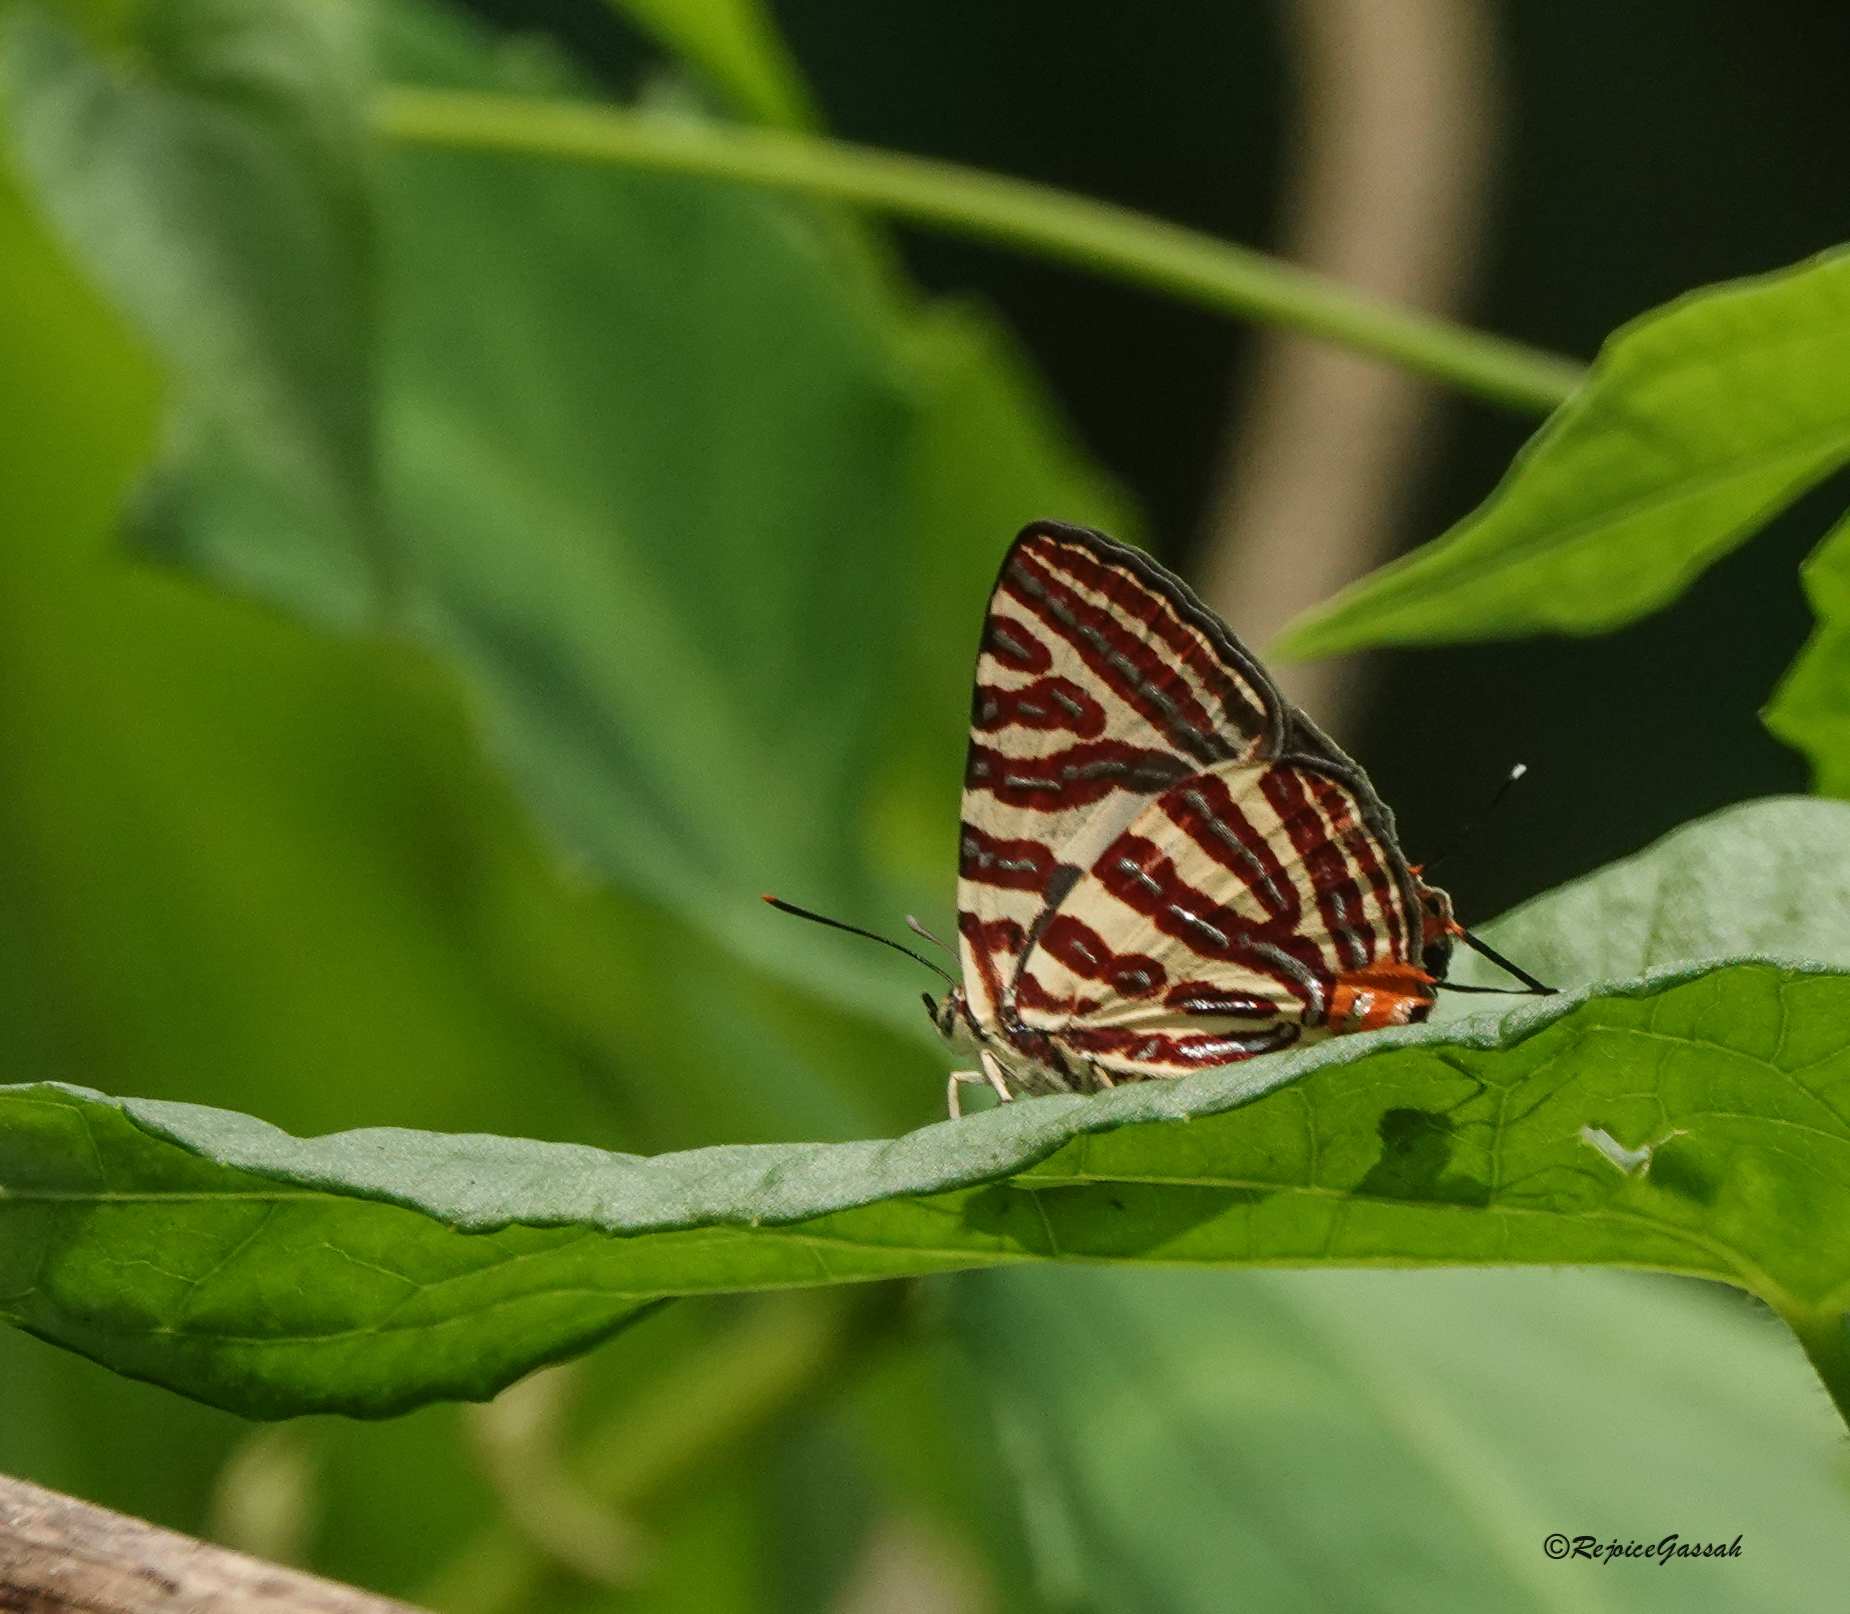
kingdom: Animalia
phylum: Arthropoda
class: Insecta
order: Lepidoptera
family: Lycaenidae
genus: Cigaritis
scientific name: Cigaritis lohita
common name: Long-banded silverline
